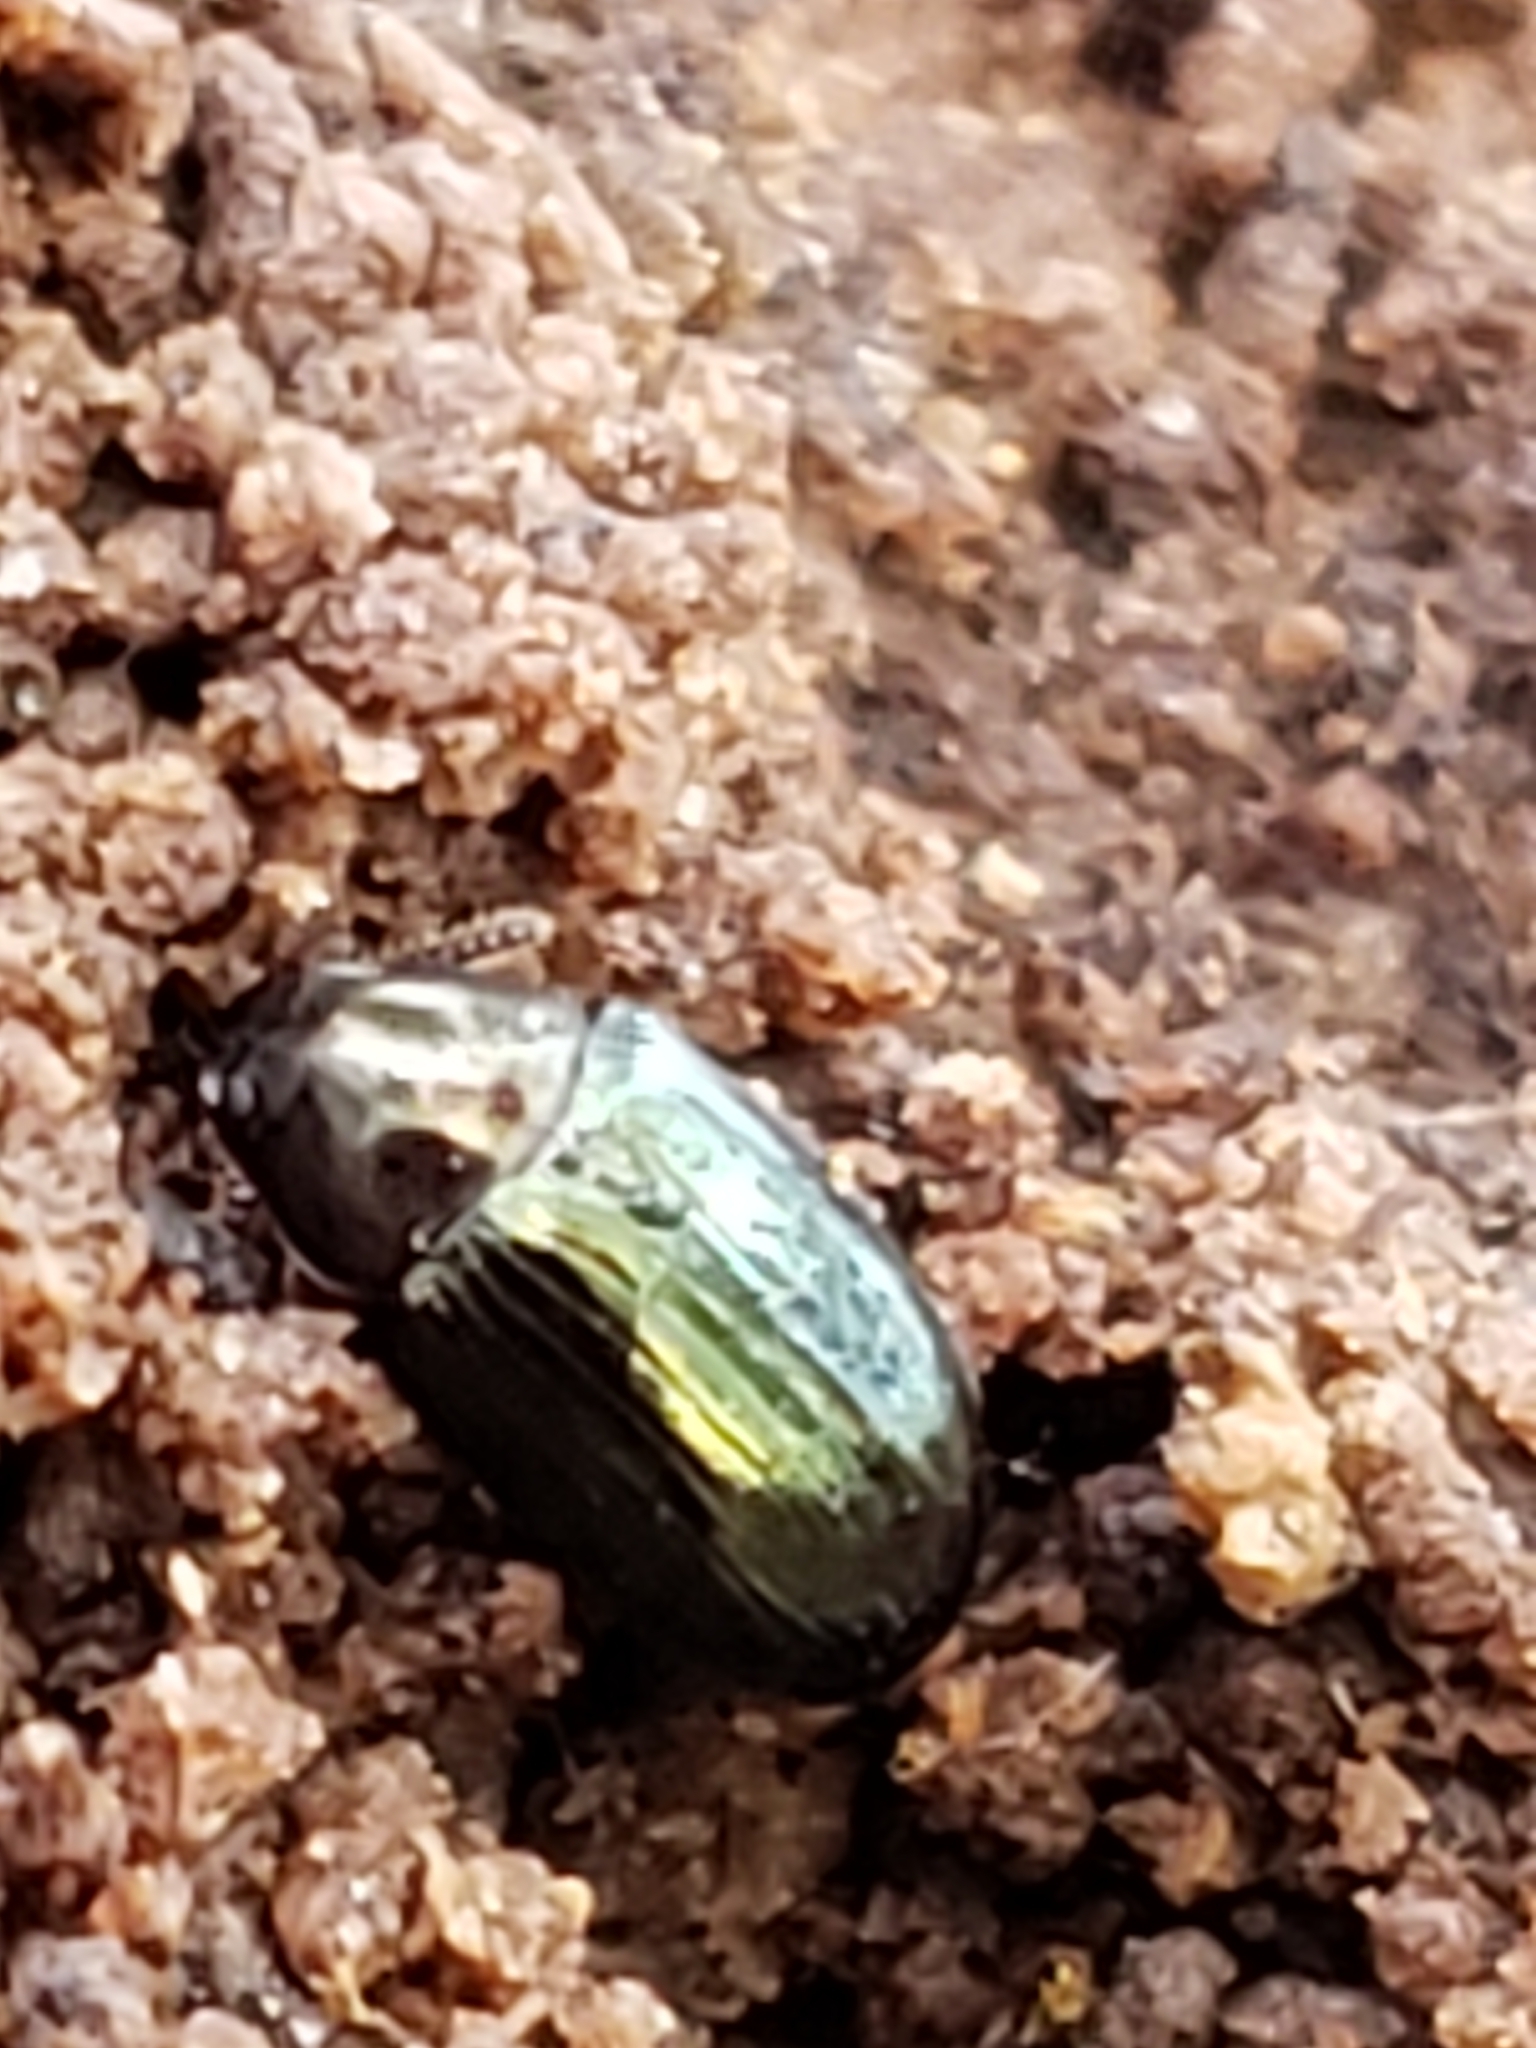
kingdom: Animalia
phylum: Arthropoda
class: Insecta
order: Coleoptera
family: Tenebrionidae
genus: Neomida
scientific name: Neomida bicornis
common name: Two-horned darkling beetle
